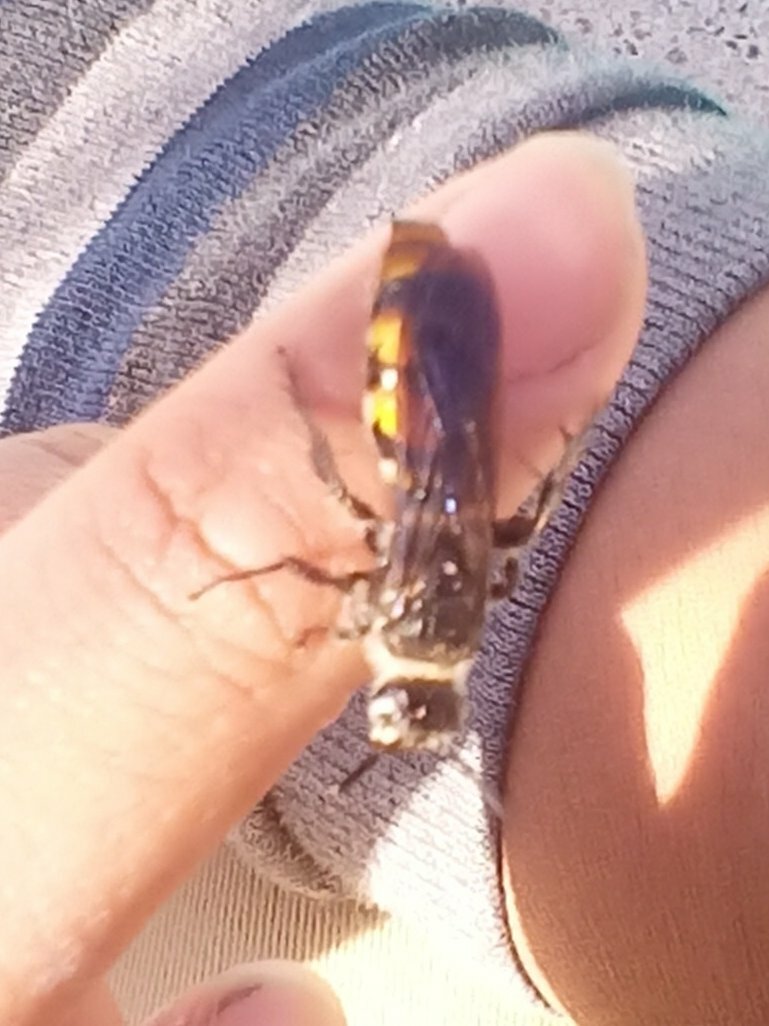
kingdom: Animalia
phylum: Arthropoda
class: Insecta
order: Hymenoptera
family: Scoliidae
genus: Dielis
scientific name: Dielis tolteca
